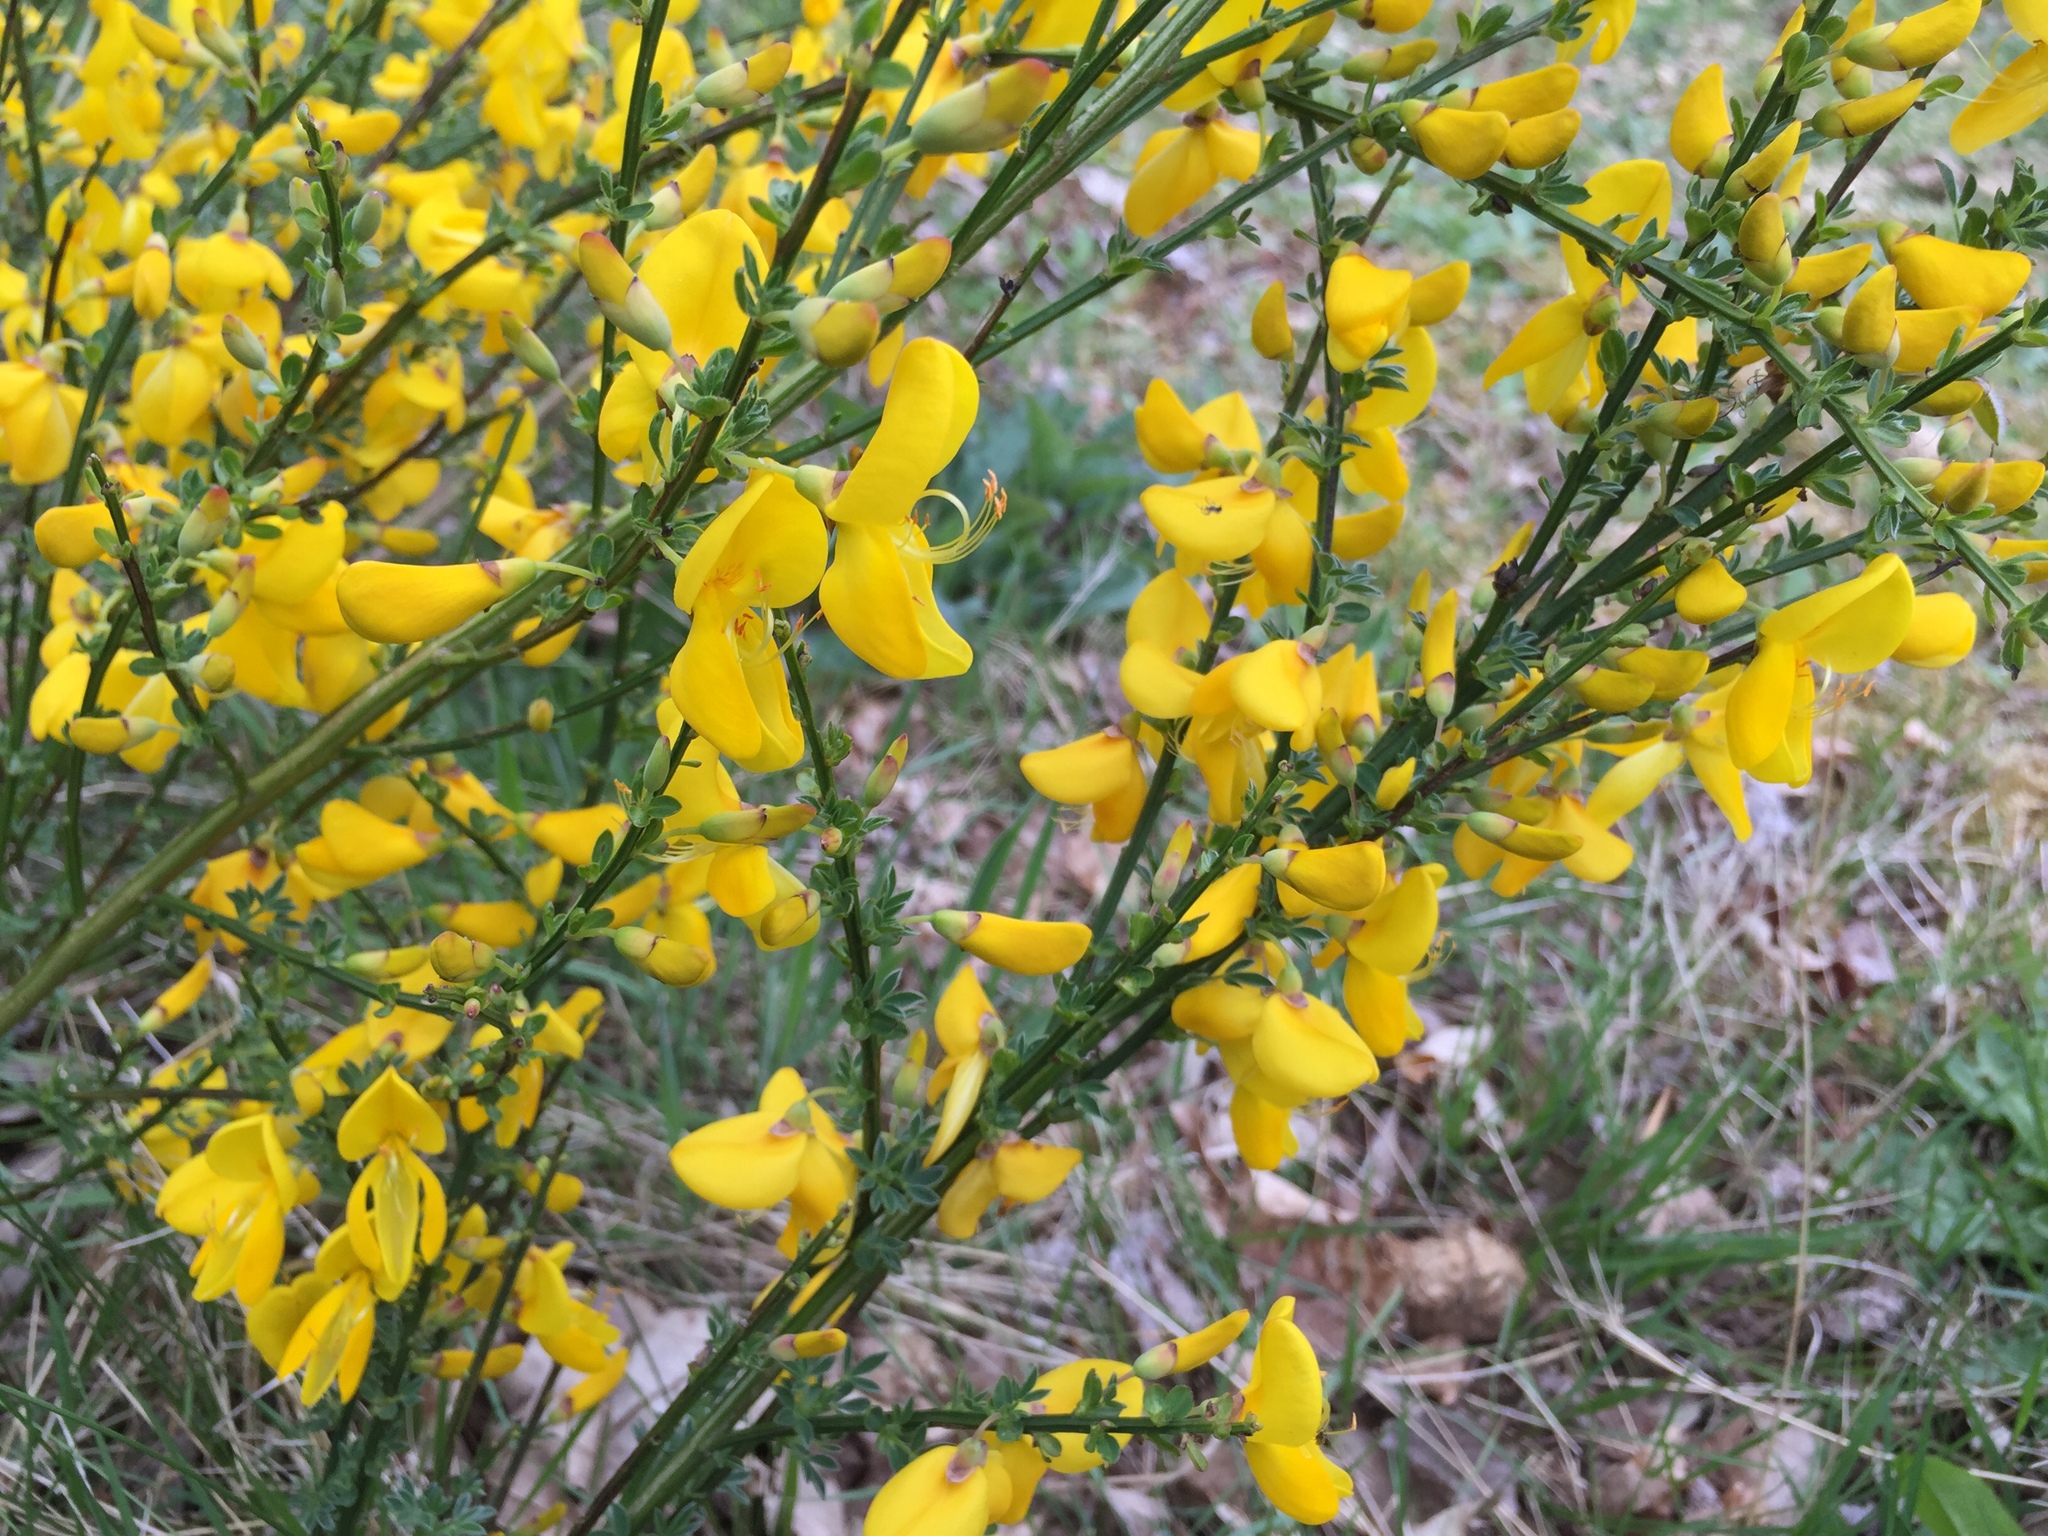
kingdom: Plantae
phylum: Tracheophyta
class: Magnoliopsida
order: Fabales
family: Fabaceae
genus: Cytisus
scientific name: Cytisus scoparius
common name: Scotch broom
